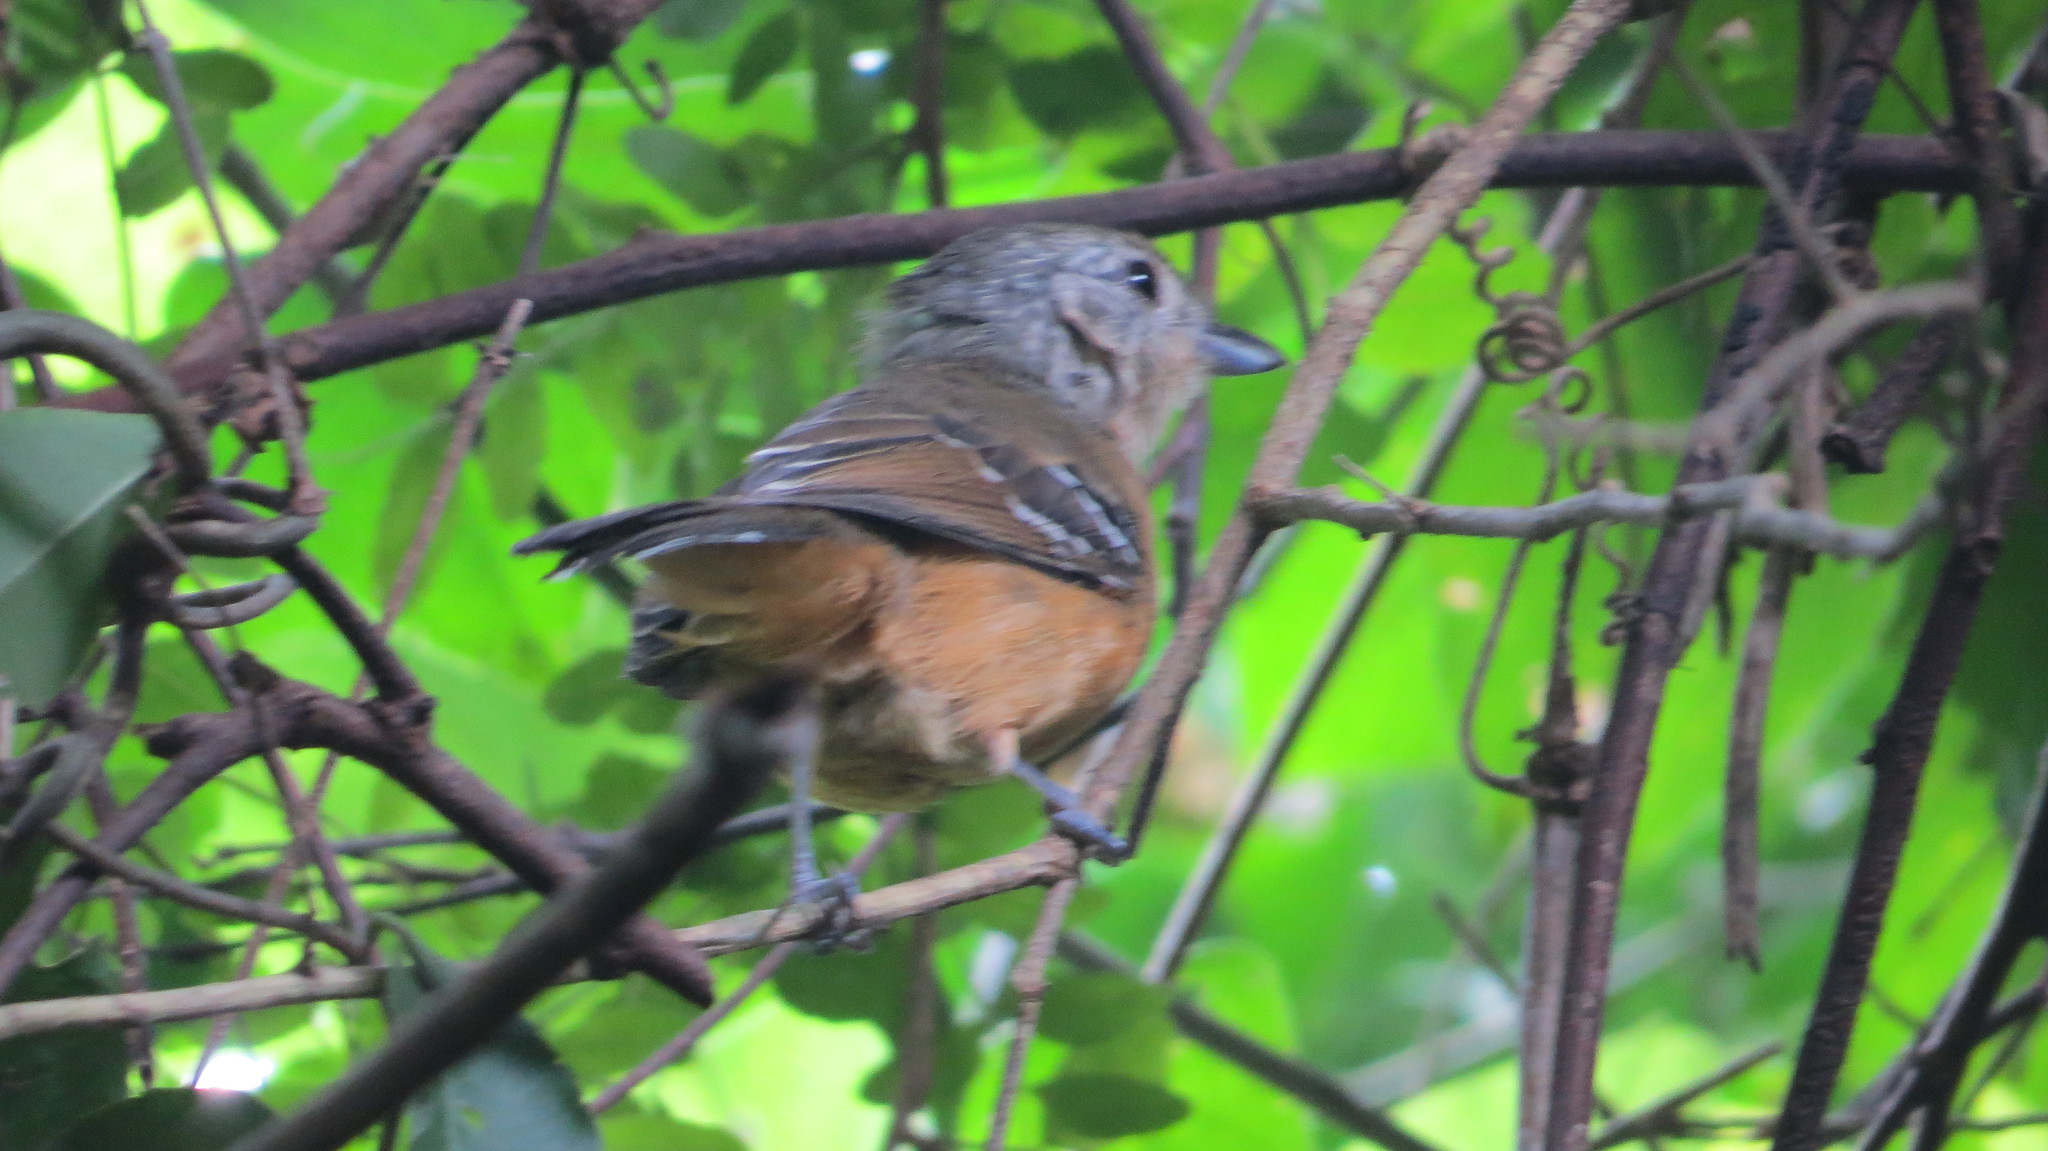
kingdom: Animalia
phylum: Chordata
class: Aves
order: Passeriformes
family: Thamnophilidae
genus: Thamnophilus
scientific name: Thamnophilus caerulescens
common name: Variable antshrike
